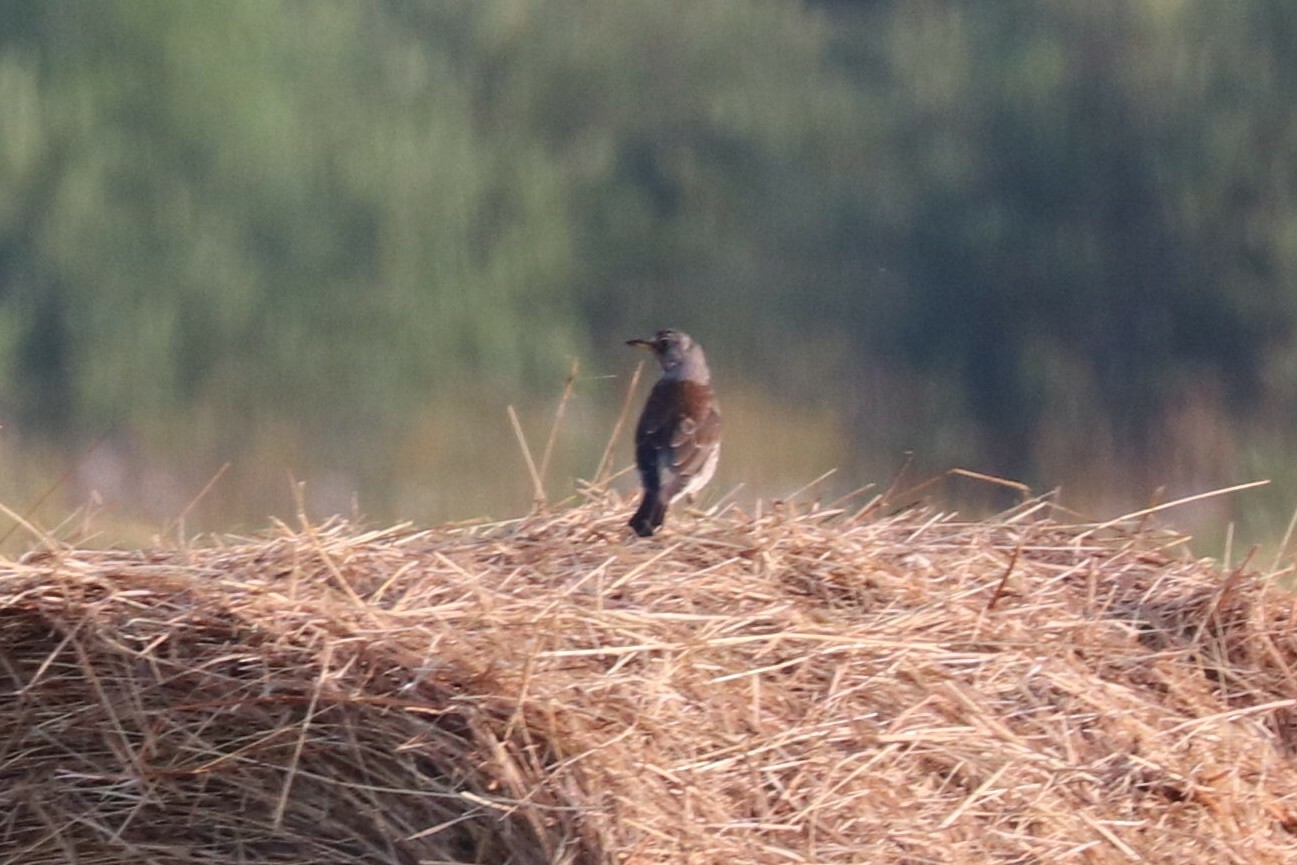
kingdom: Animalia
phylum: Chordata
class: Aves
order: Passeriformes
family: Turdidae
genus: Turdus
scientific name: Turdus pilaris
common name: Fieldfare
